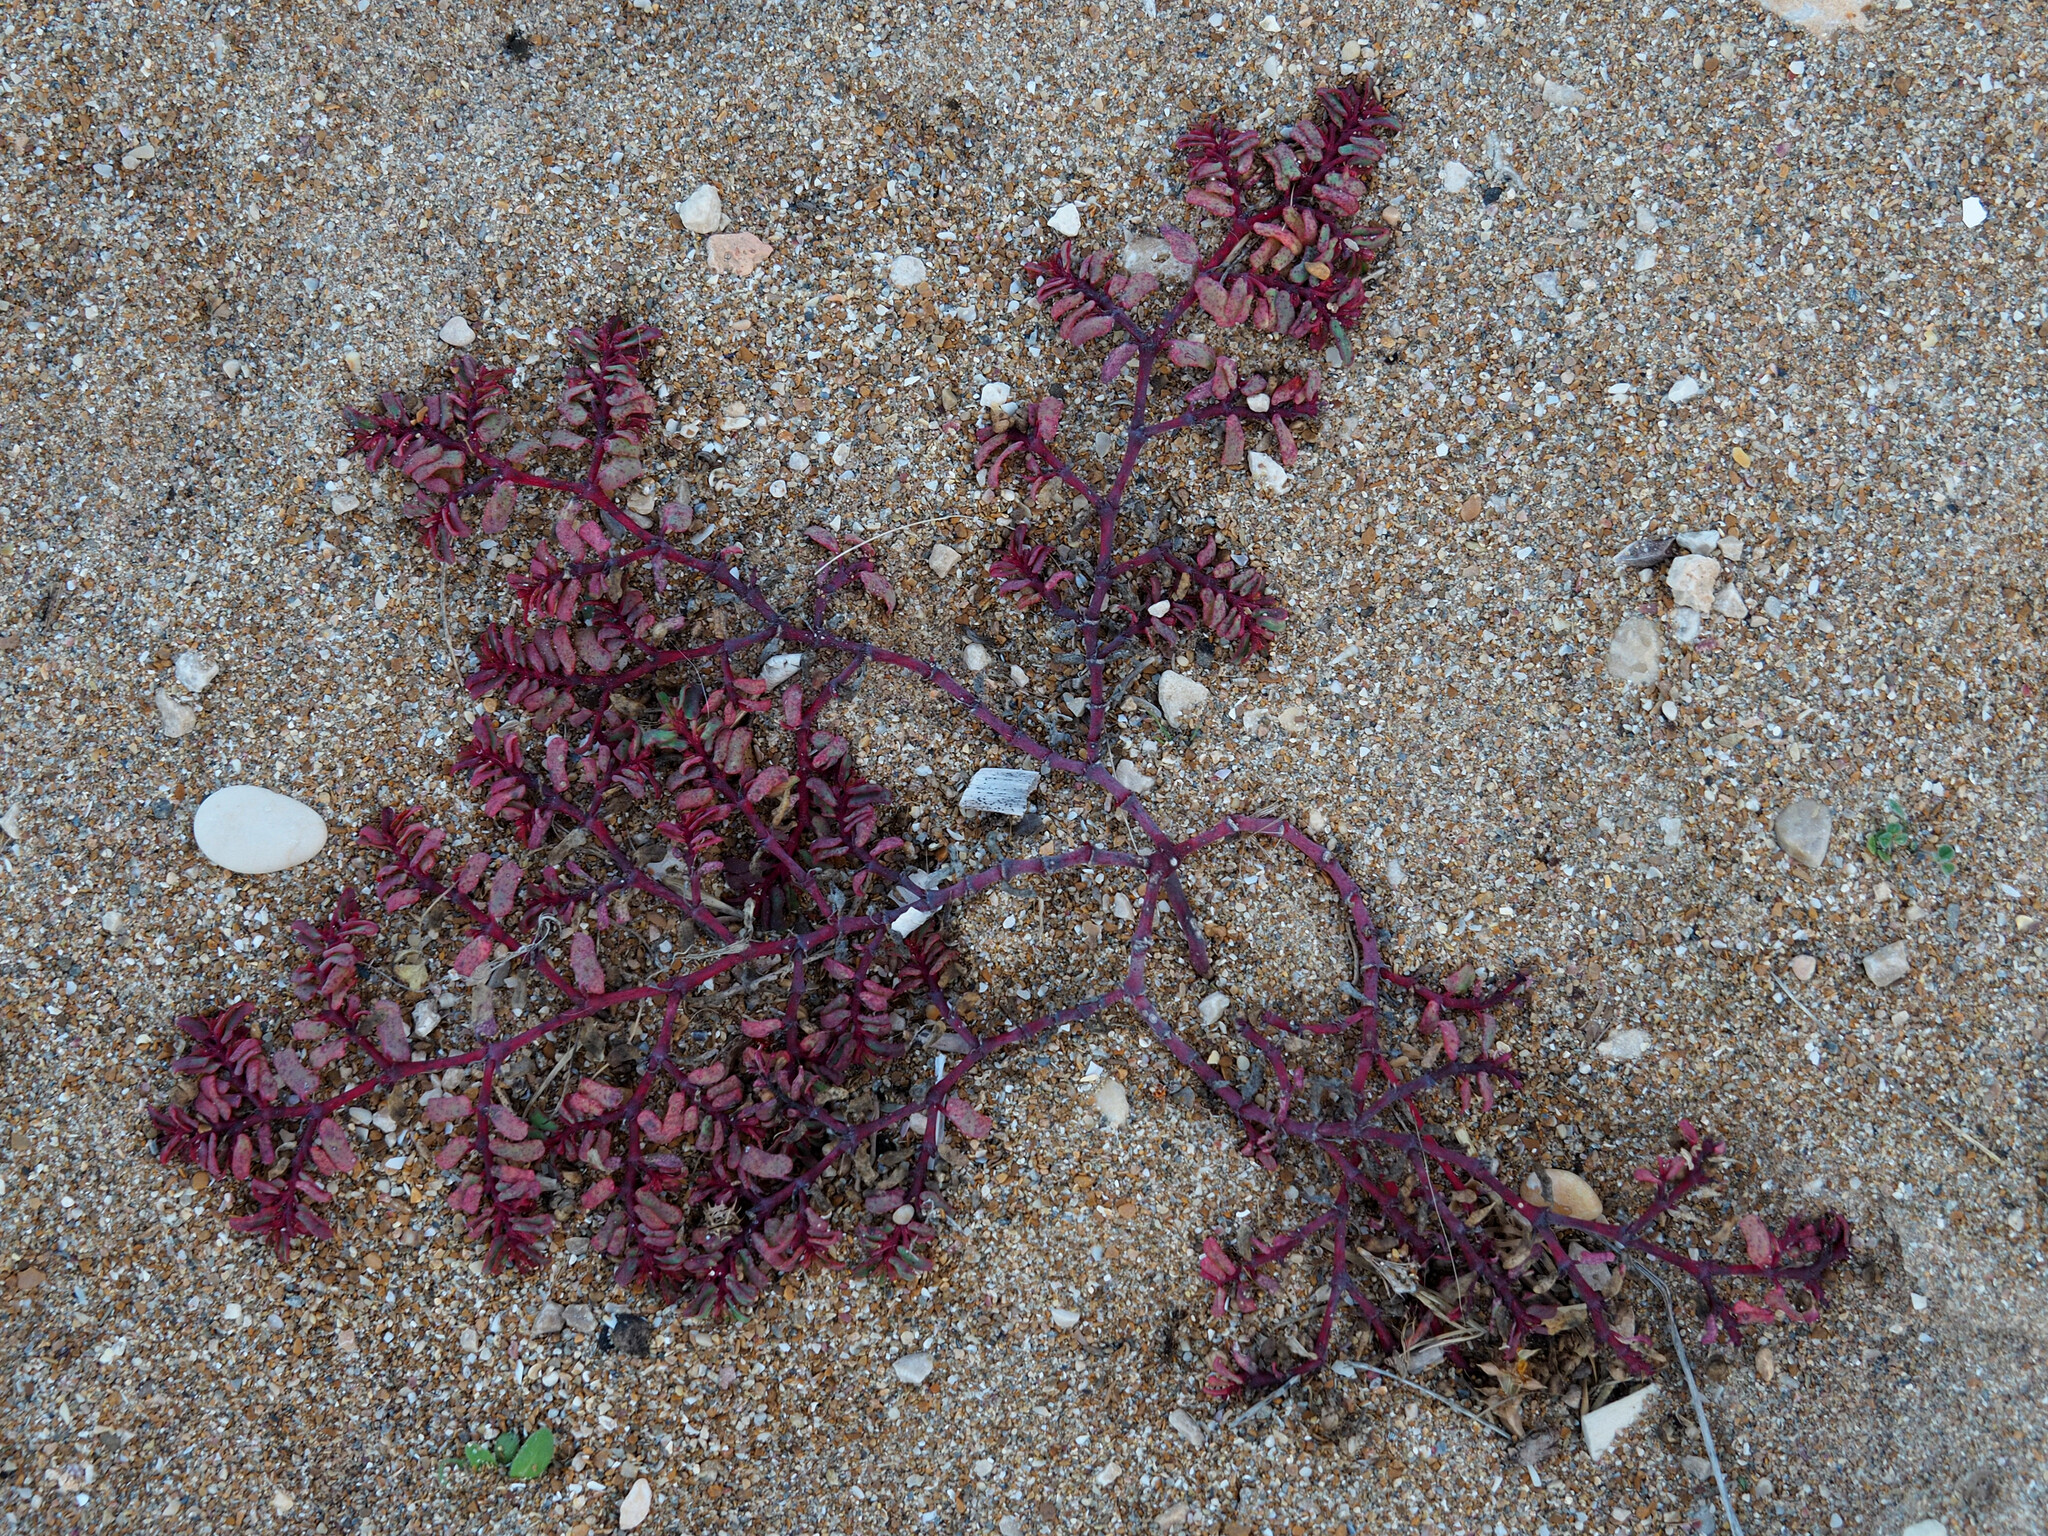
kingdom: Plantae
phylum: Tracheophyta
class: Magnoliopsida
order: Malpighiales
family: Euphorbiaceae
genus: Euphorbia
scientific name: Euphorbia peplis
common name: Purple spurge
